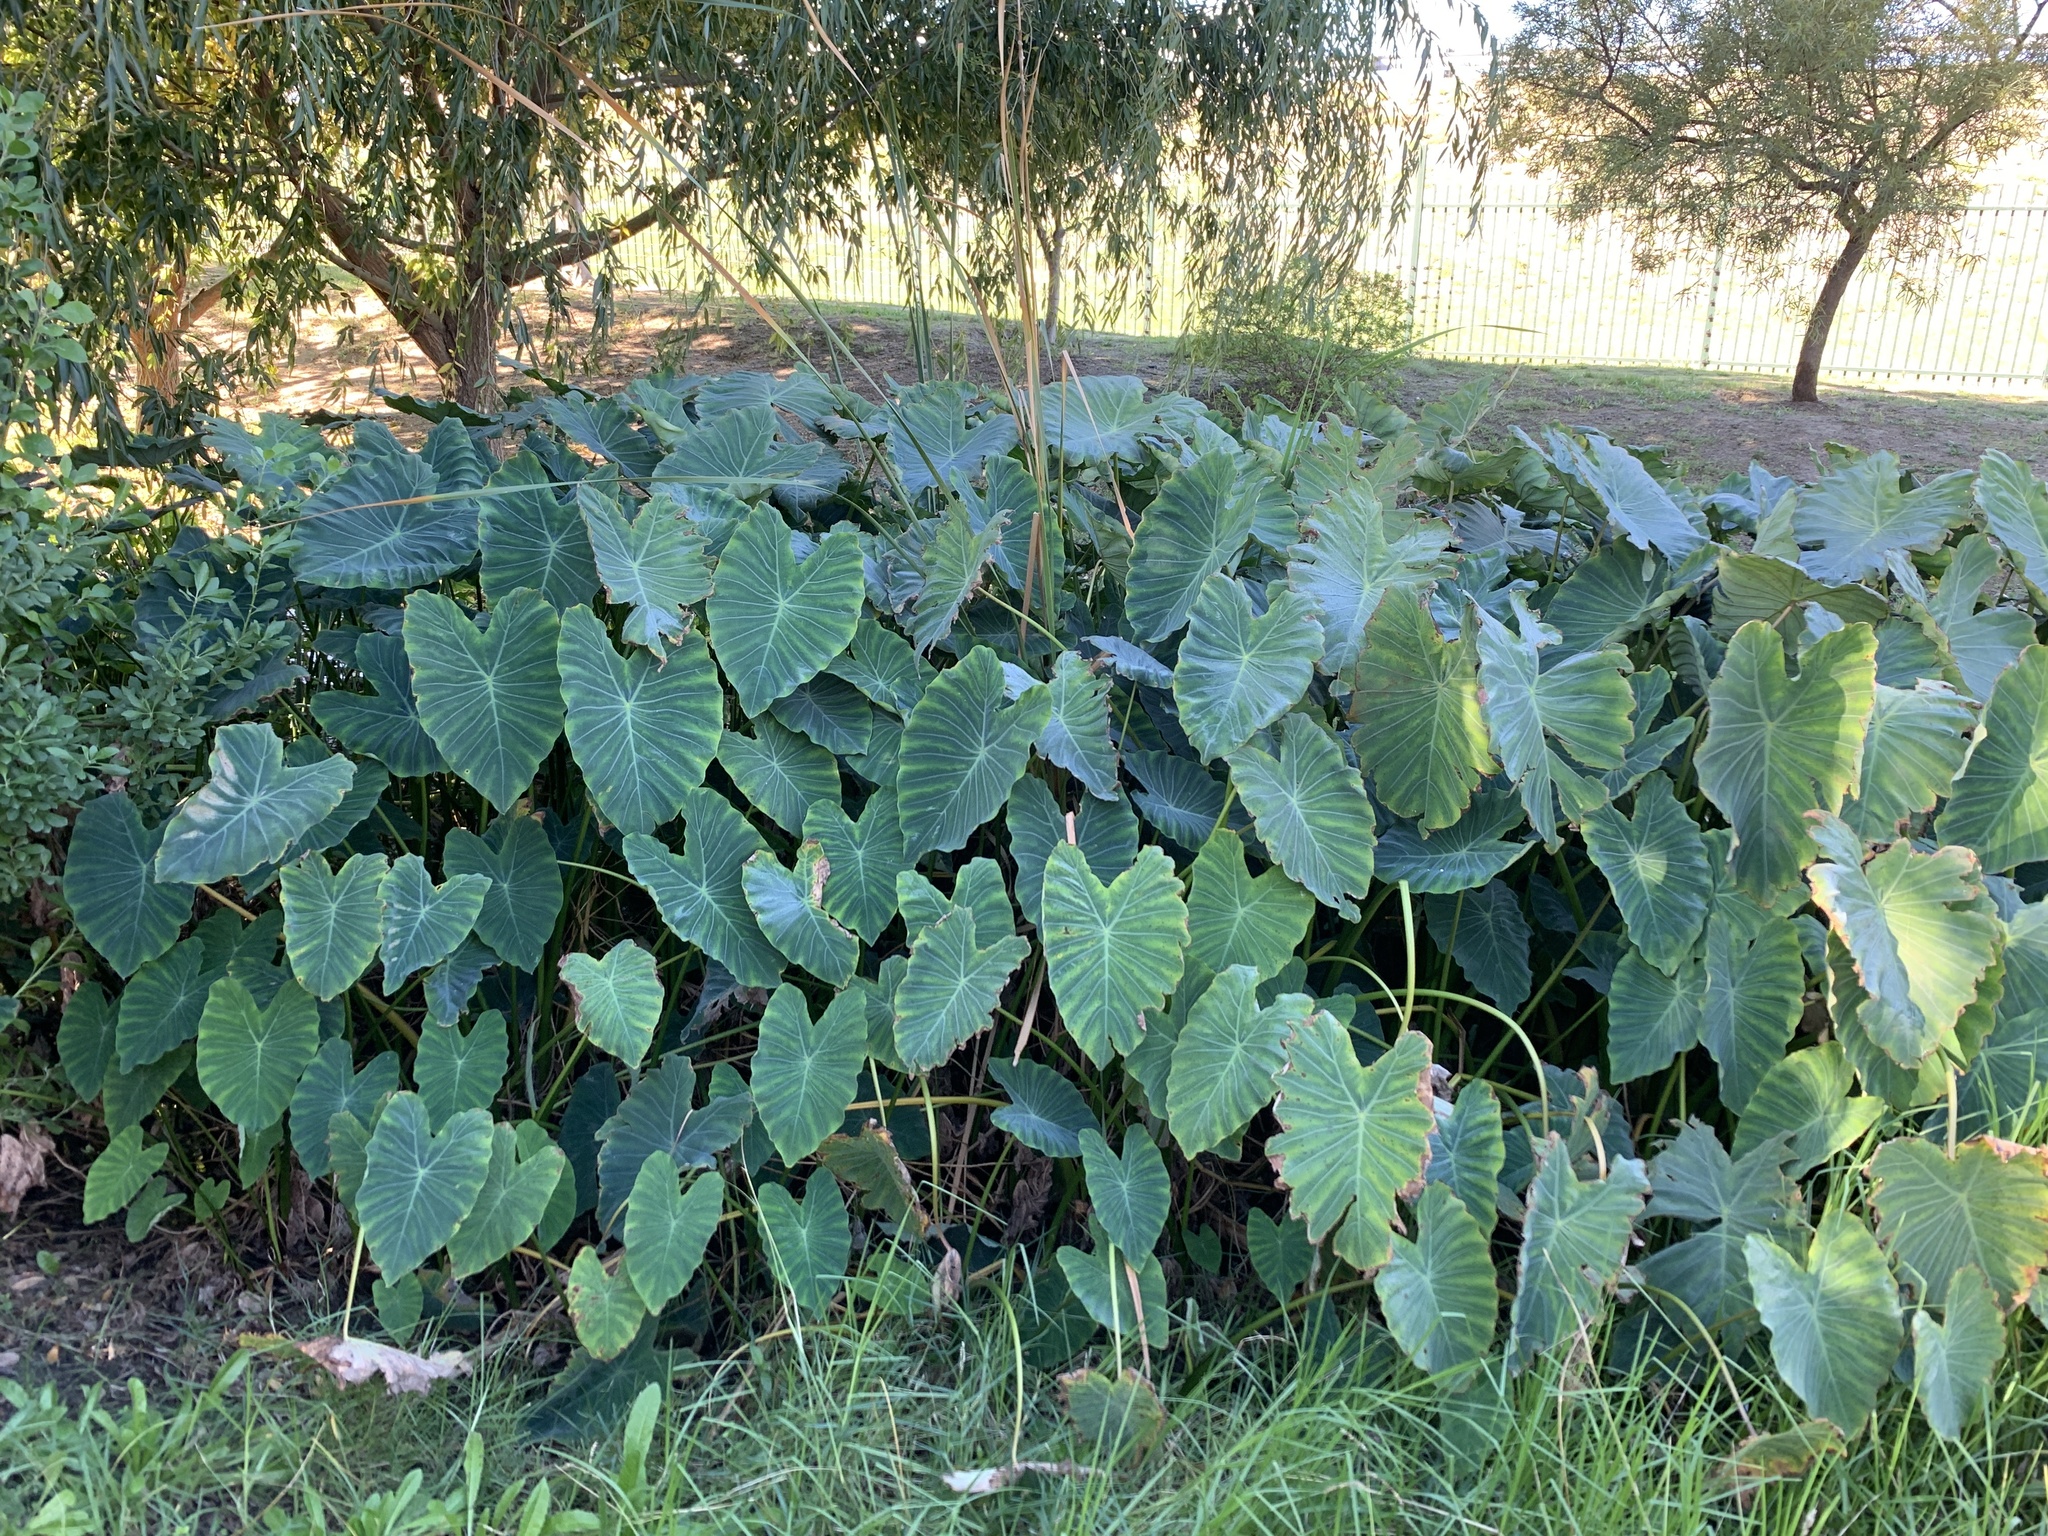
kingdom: Plantae
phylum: Tracheophyta
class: Liliopsida
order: Alismatales
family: Araceae
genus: Colocasia
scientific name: Colocasia esculenta
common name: Taro
